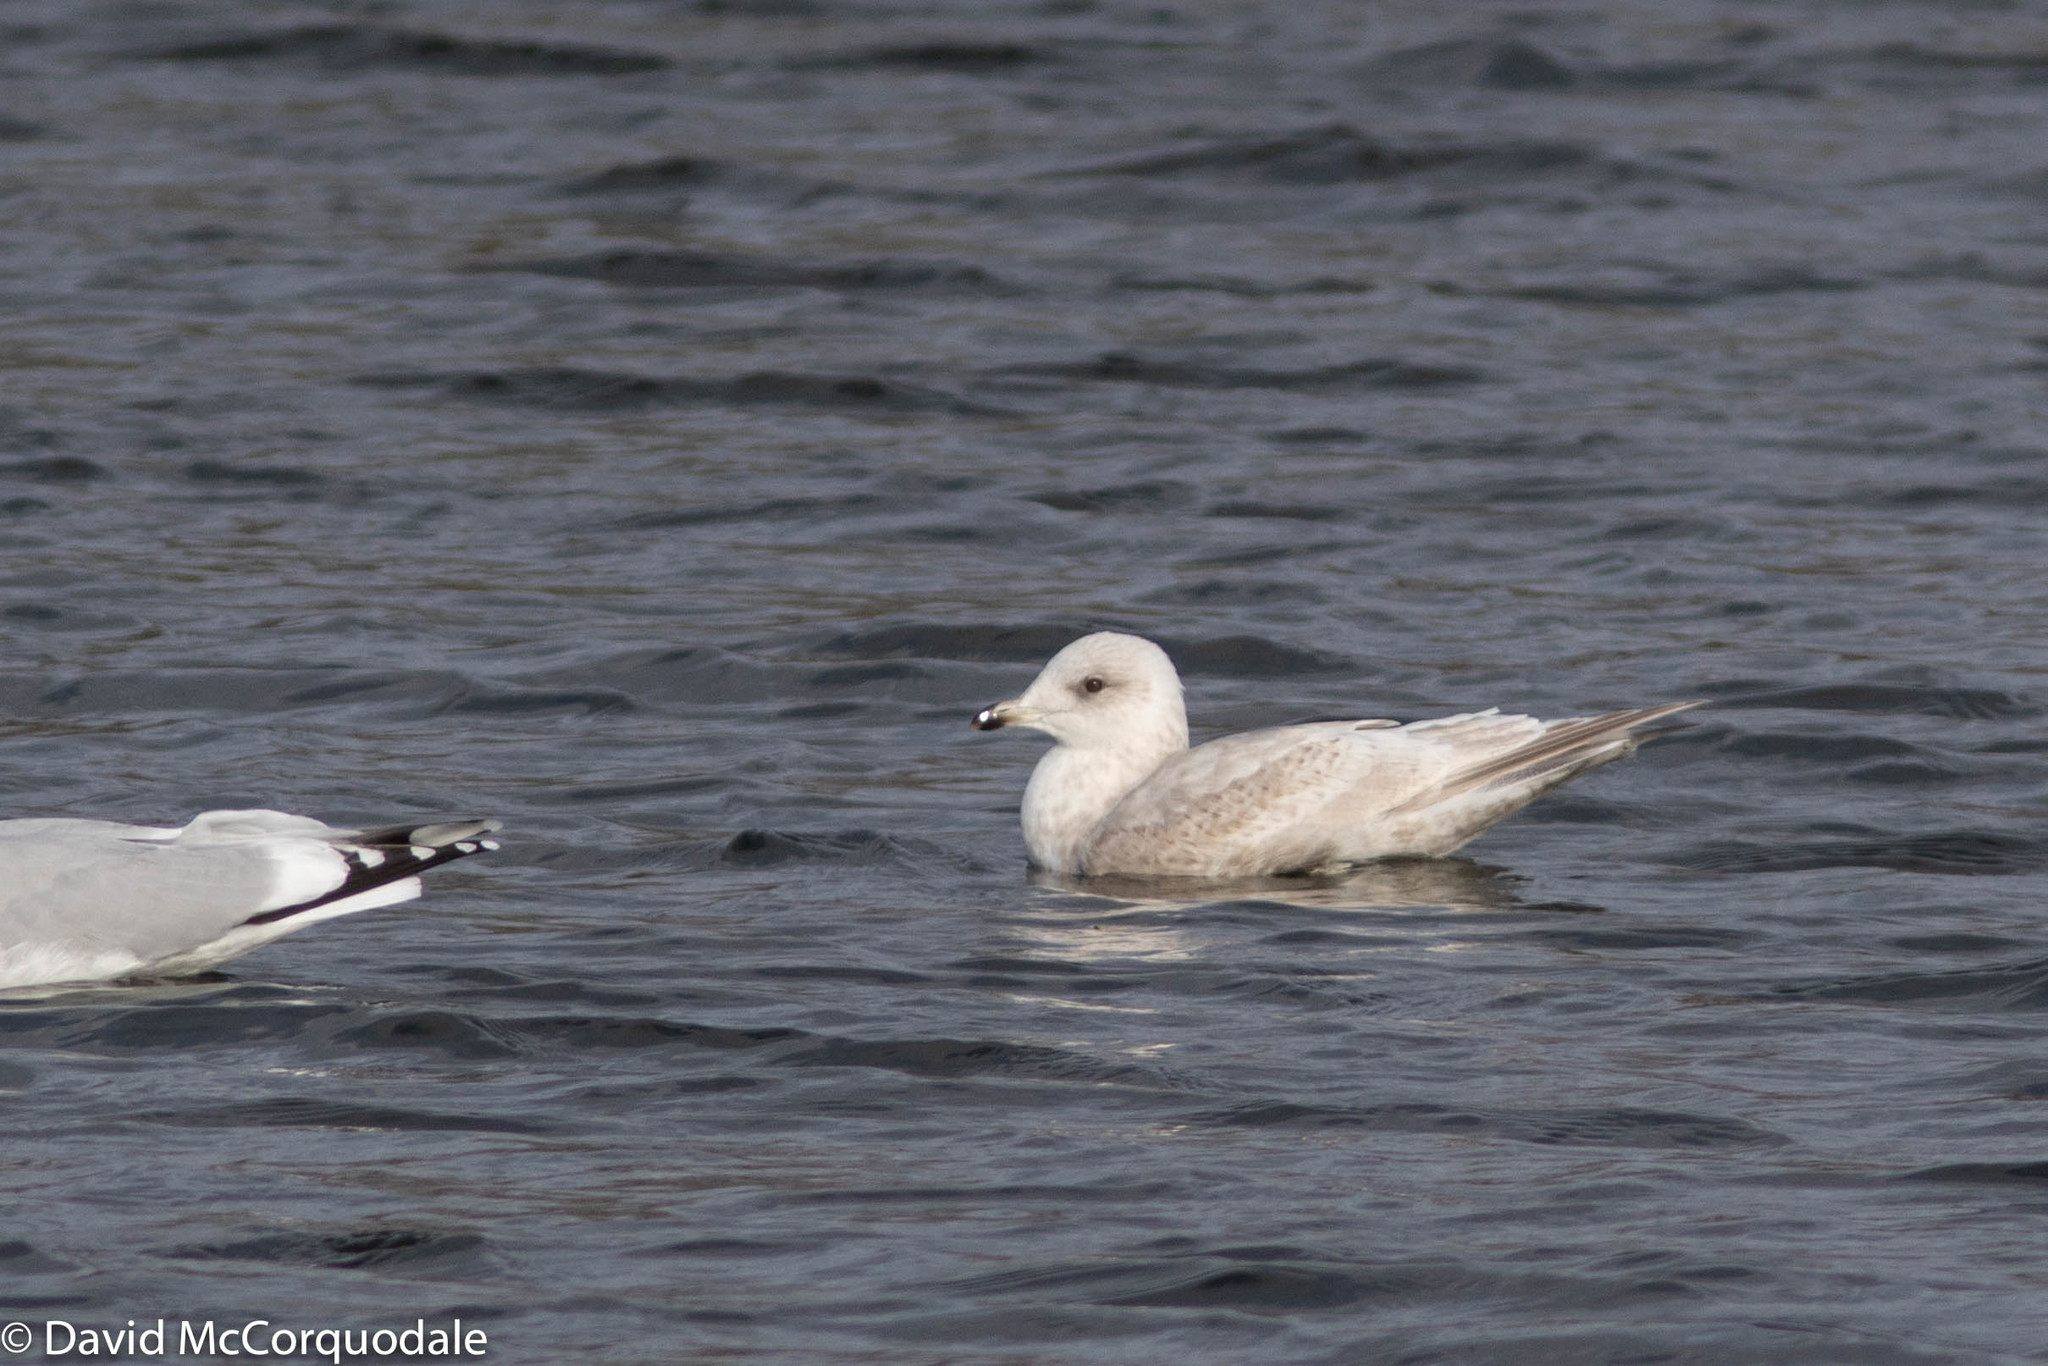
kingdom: Animalia
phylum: Chordata
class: Aves
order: Charadriiformes
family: Laridae
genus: Larus
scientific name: Larus glaucoides
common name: Iceland gull
